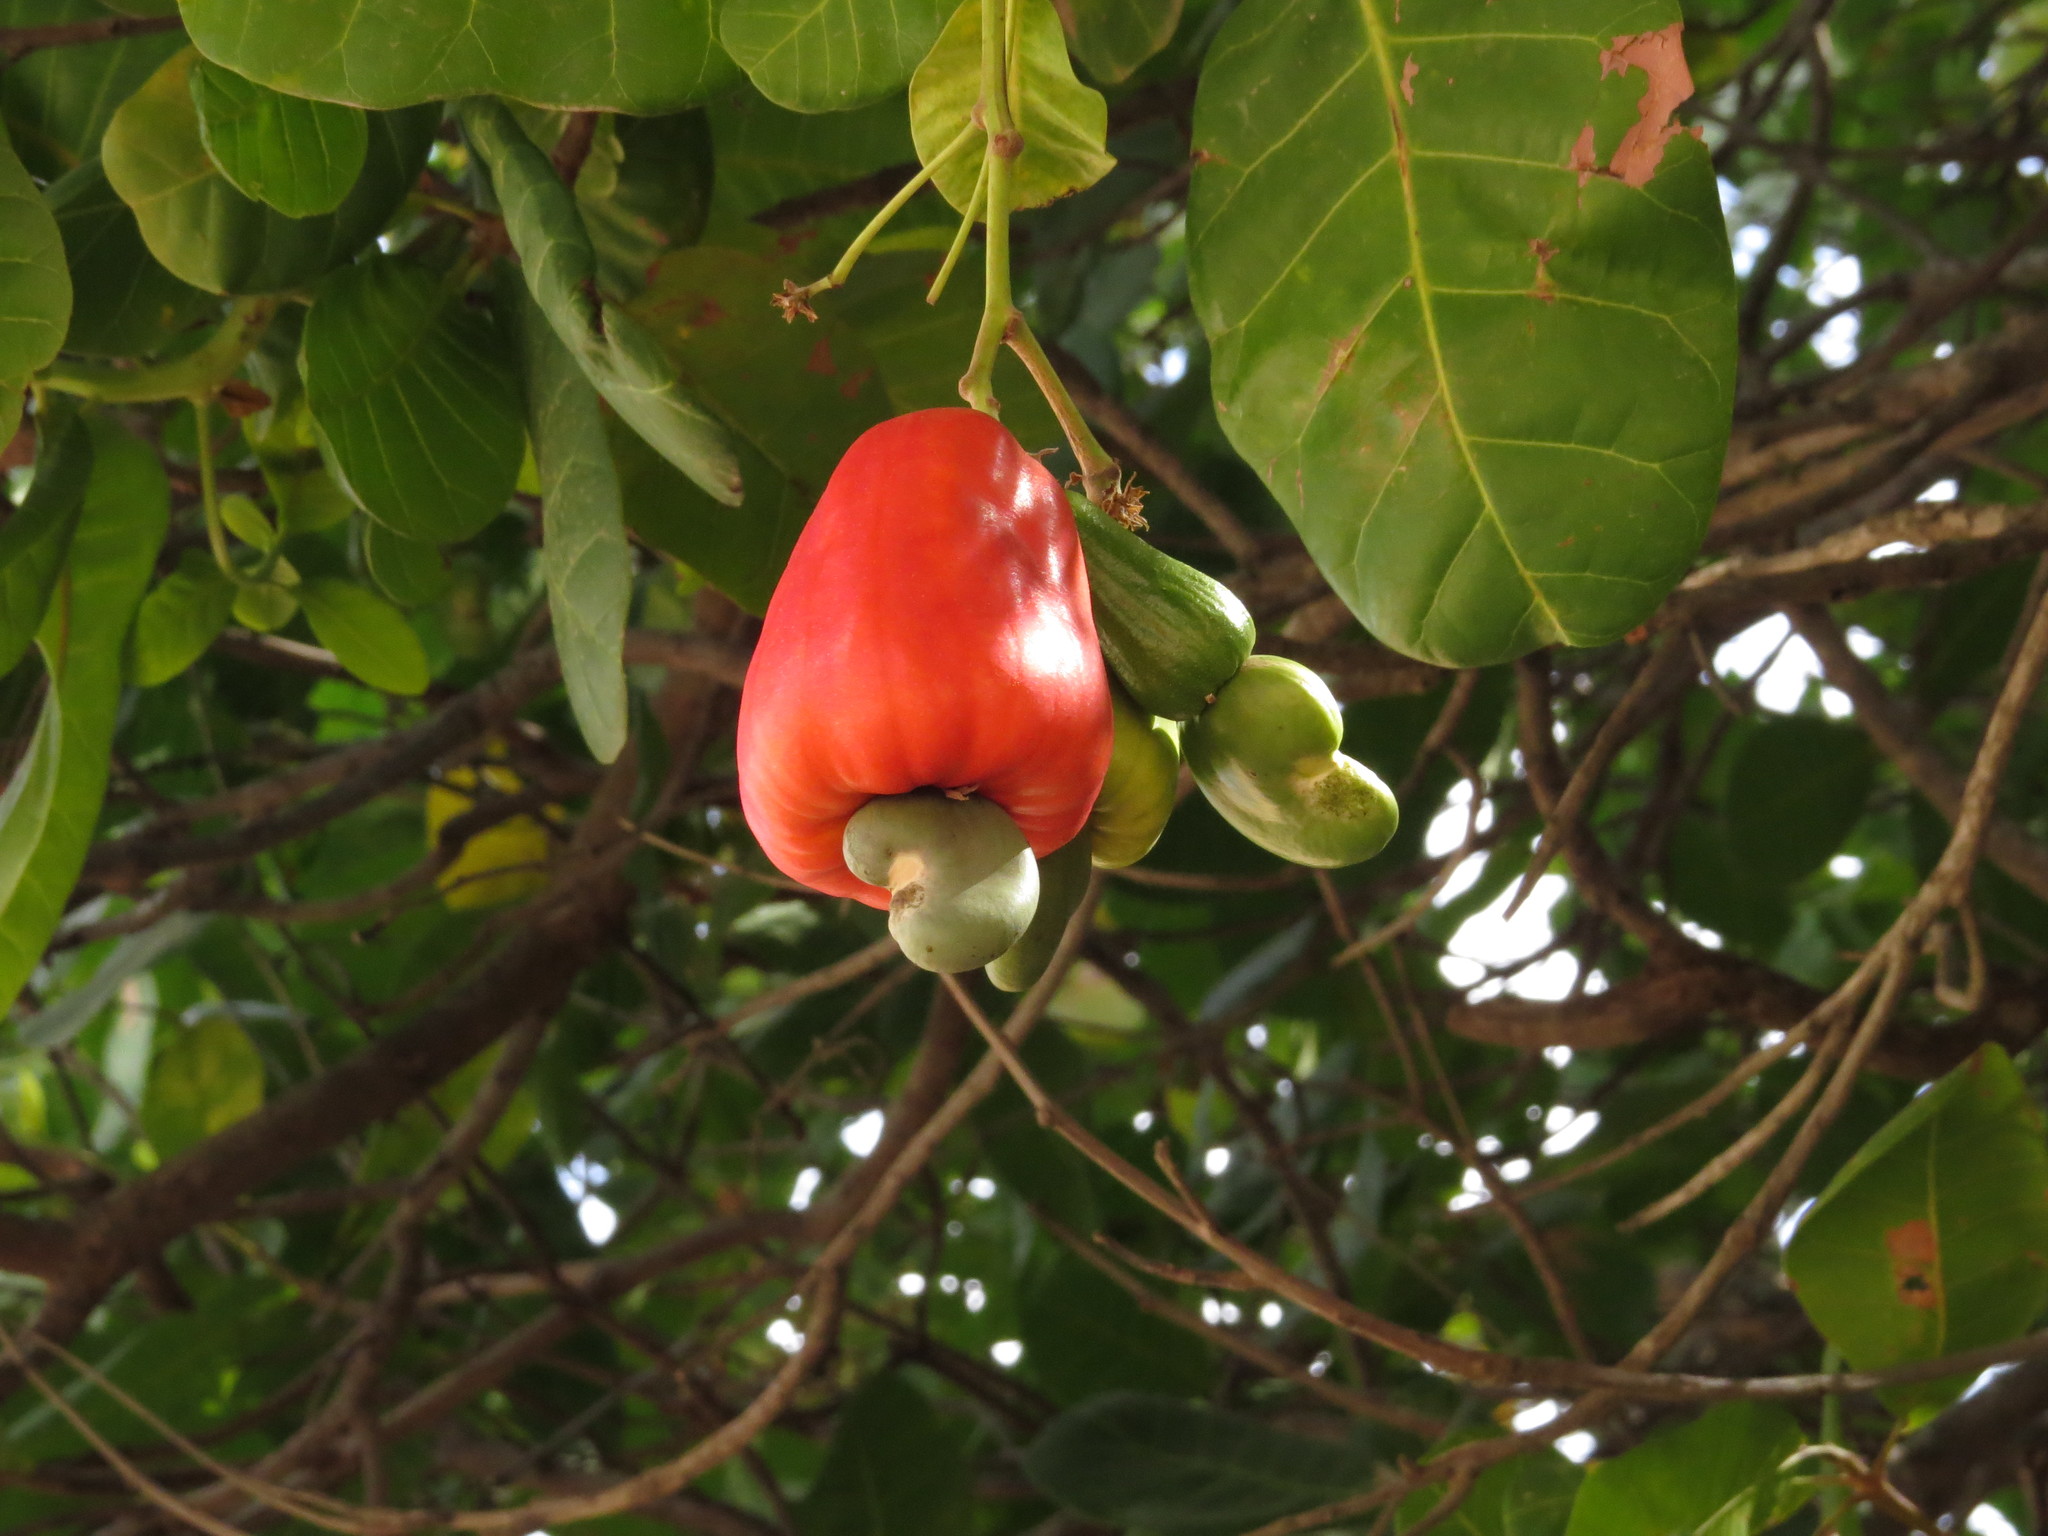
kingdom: Plantae
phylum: Tracheophyta
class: Magnoliopsida
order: Sapindales
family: Anacardiaceae
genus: Anacardium
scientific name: Anacardium occidentale
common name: Cashew
